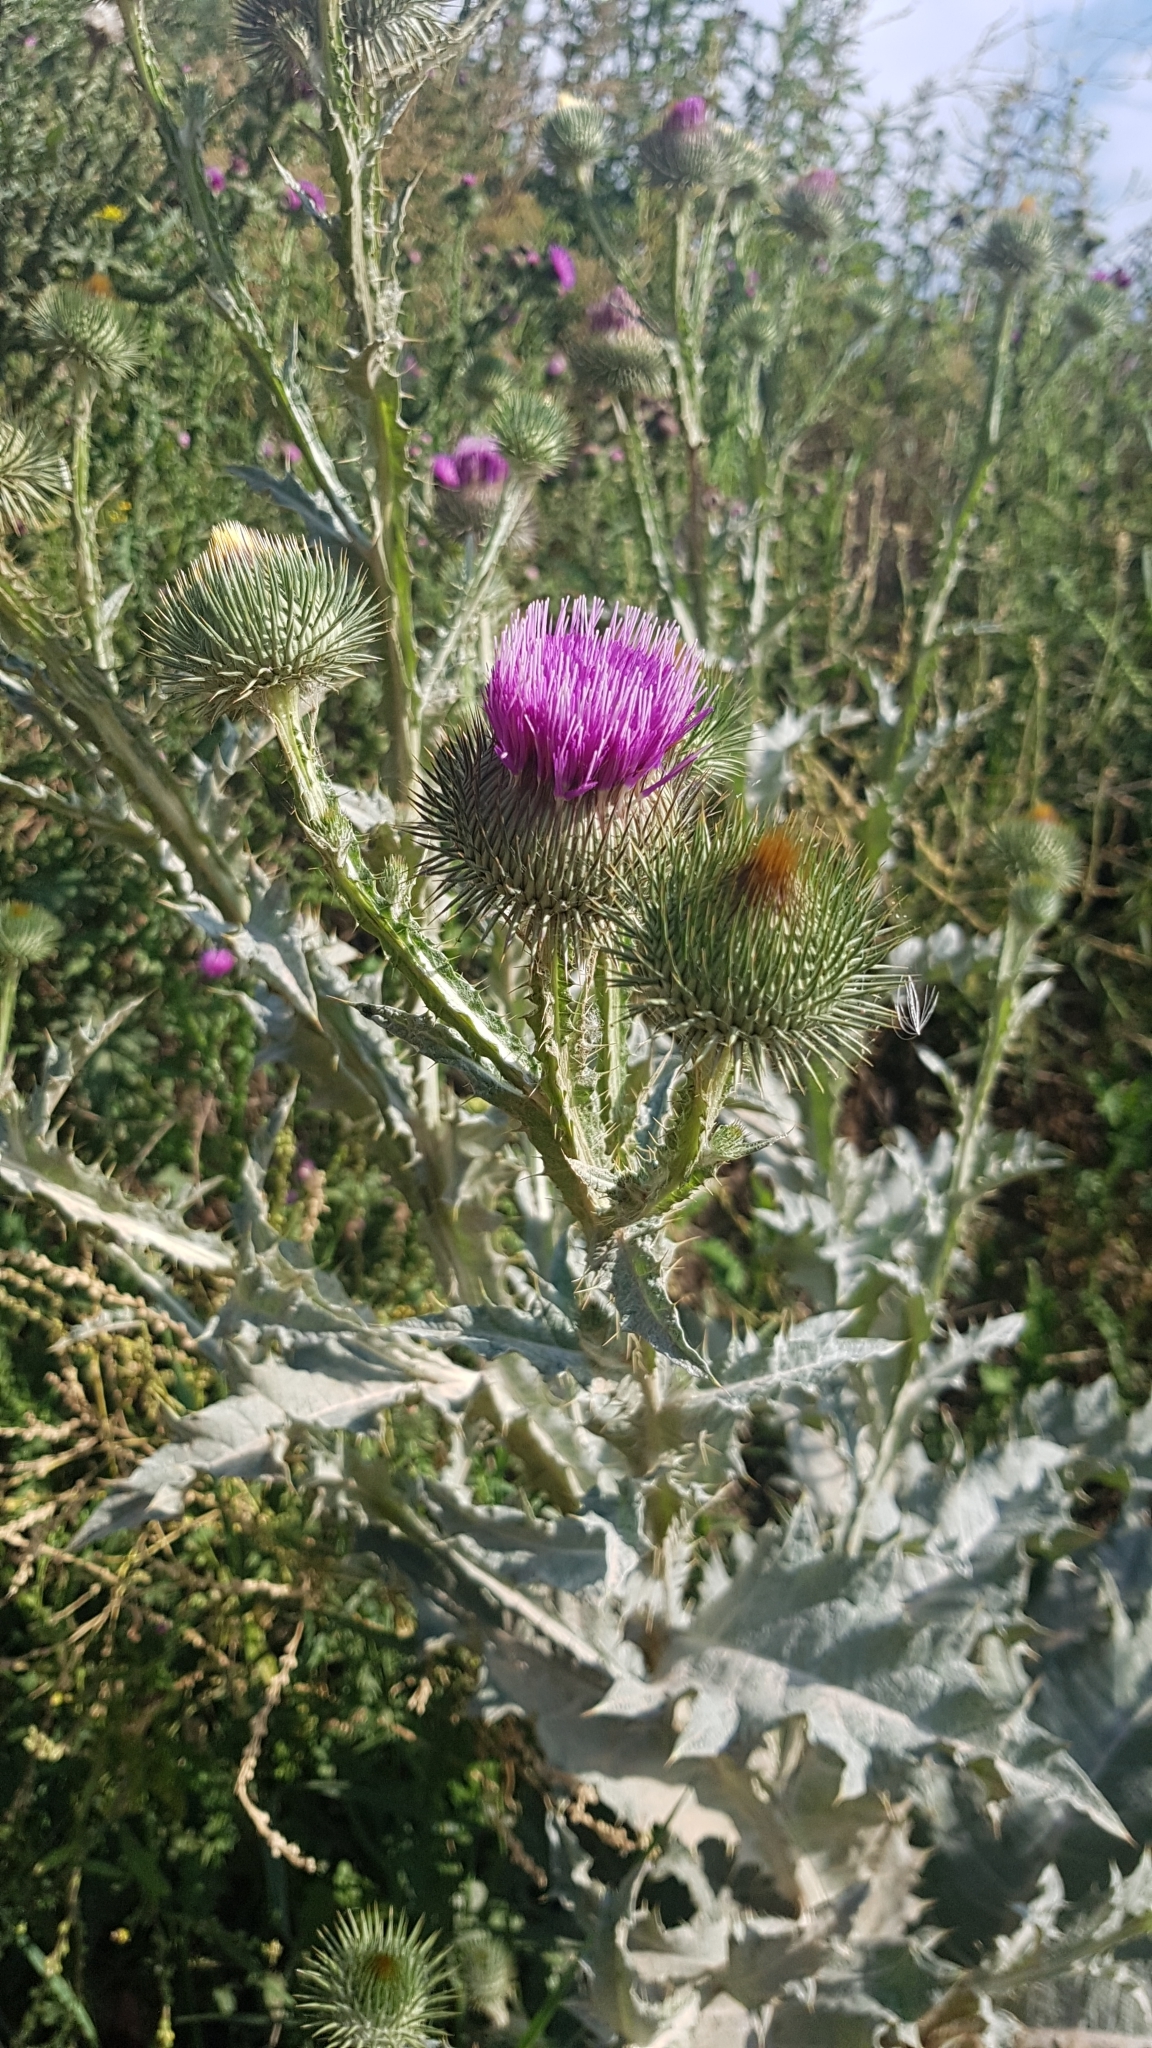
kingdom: Plantae
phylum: Tracheophyta
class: Magnoliopsida
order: Asterales
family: Asteraceae
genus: Onopordum
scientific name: Onopordum acanthium
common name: Scotch thistle
